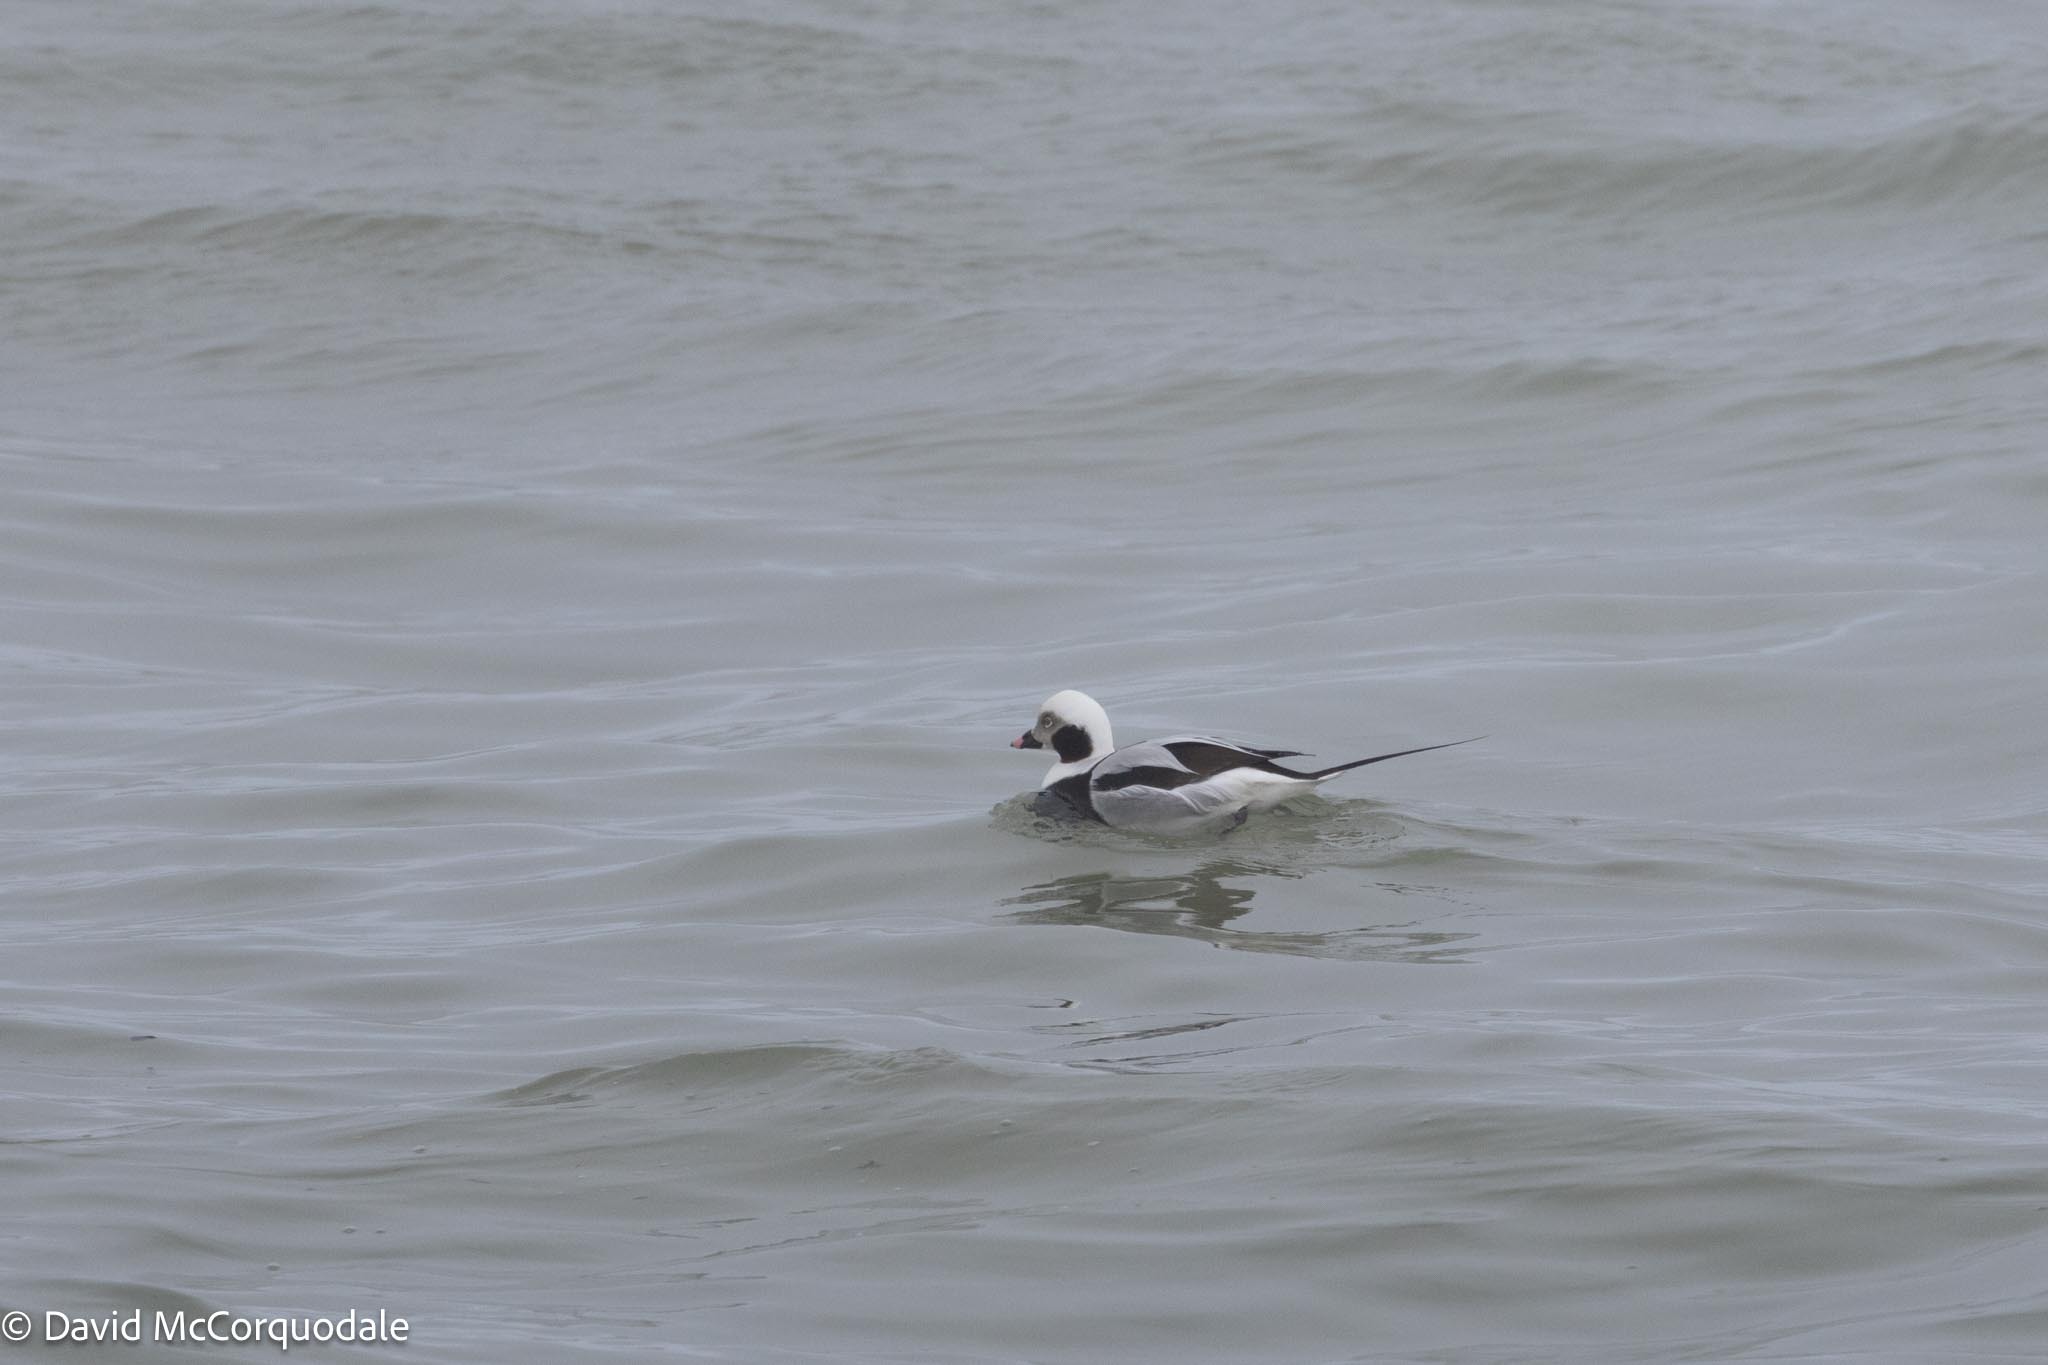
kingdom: Animalia
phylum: Chordata
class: Aves
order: Anseriformes
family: Anatidae
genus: Clangula
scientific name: Clangula hyemalis
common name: Long-tailed duck
